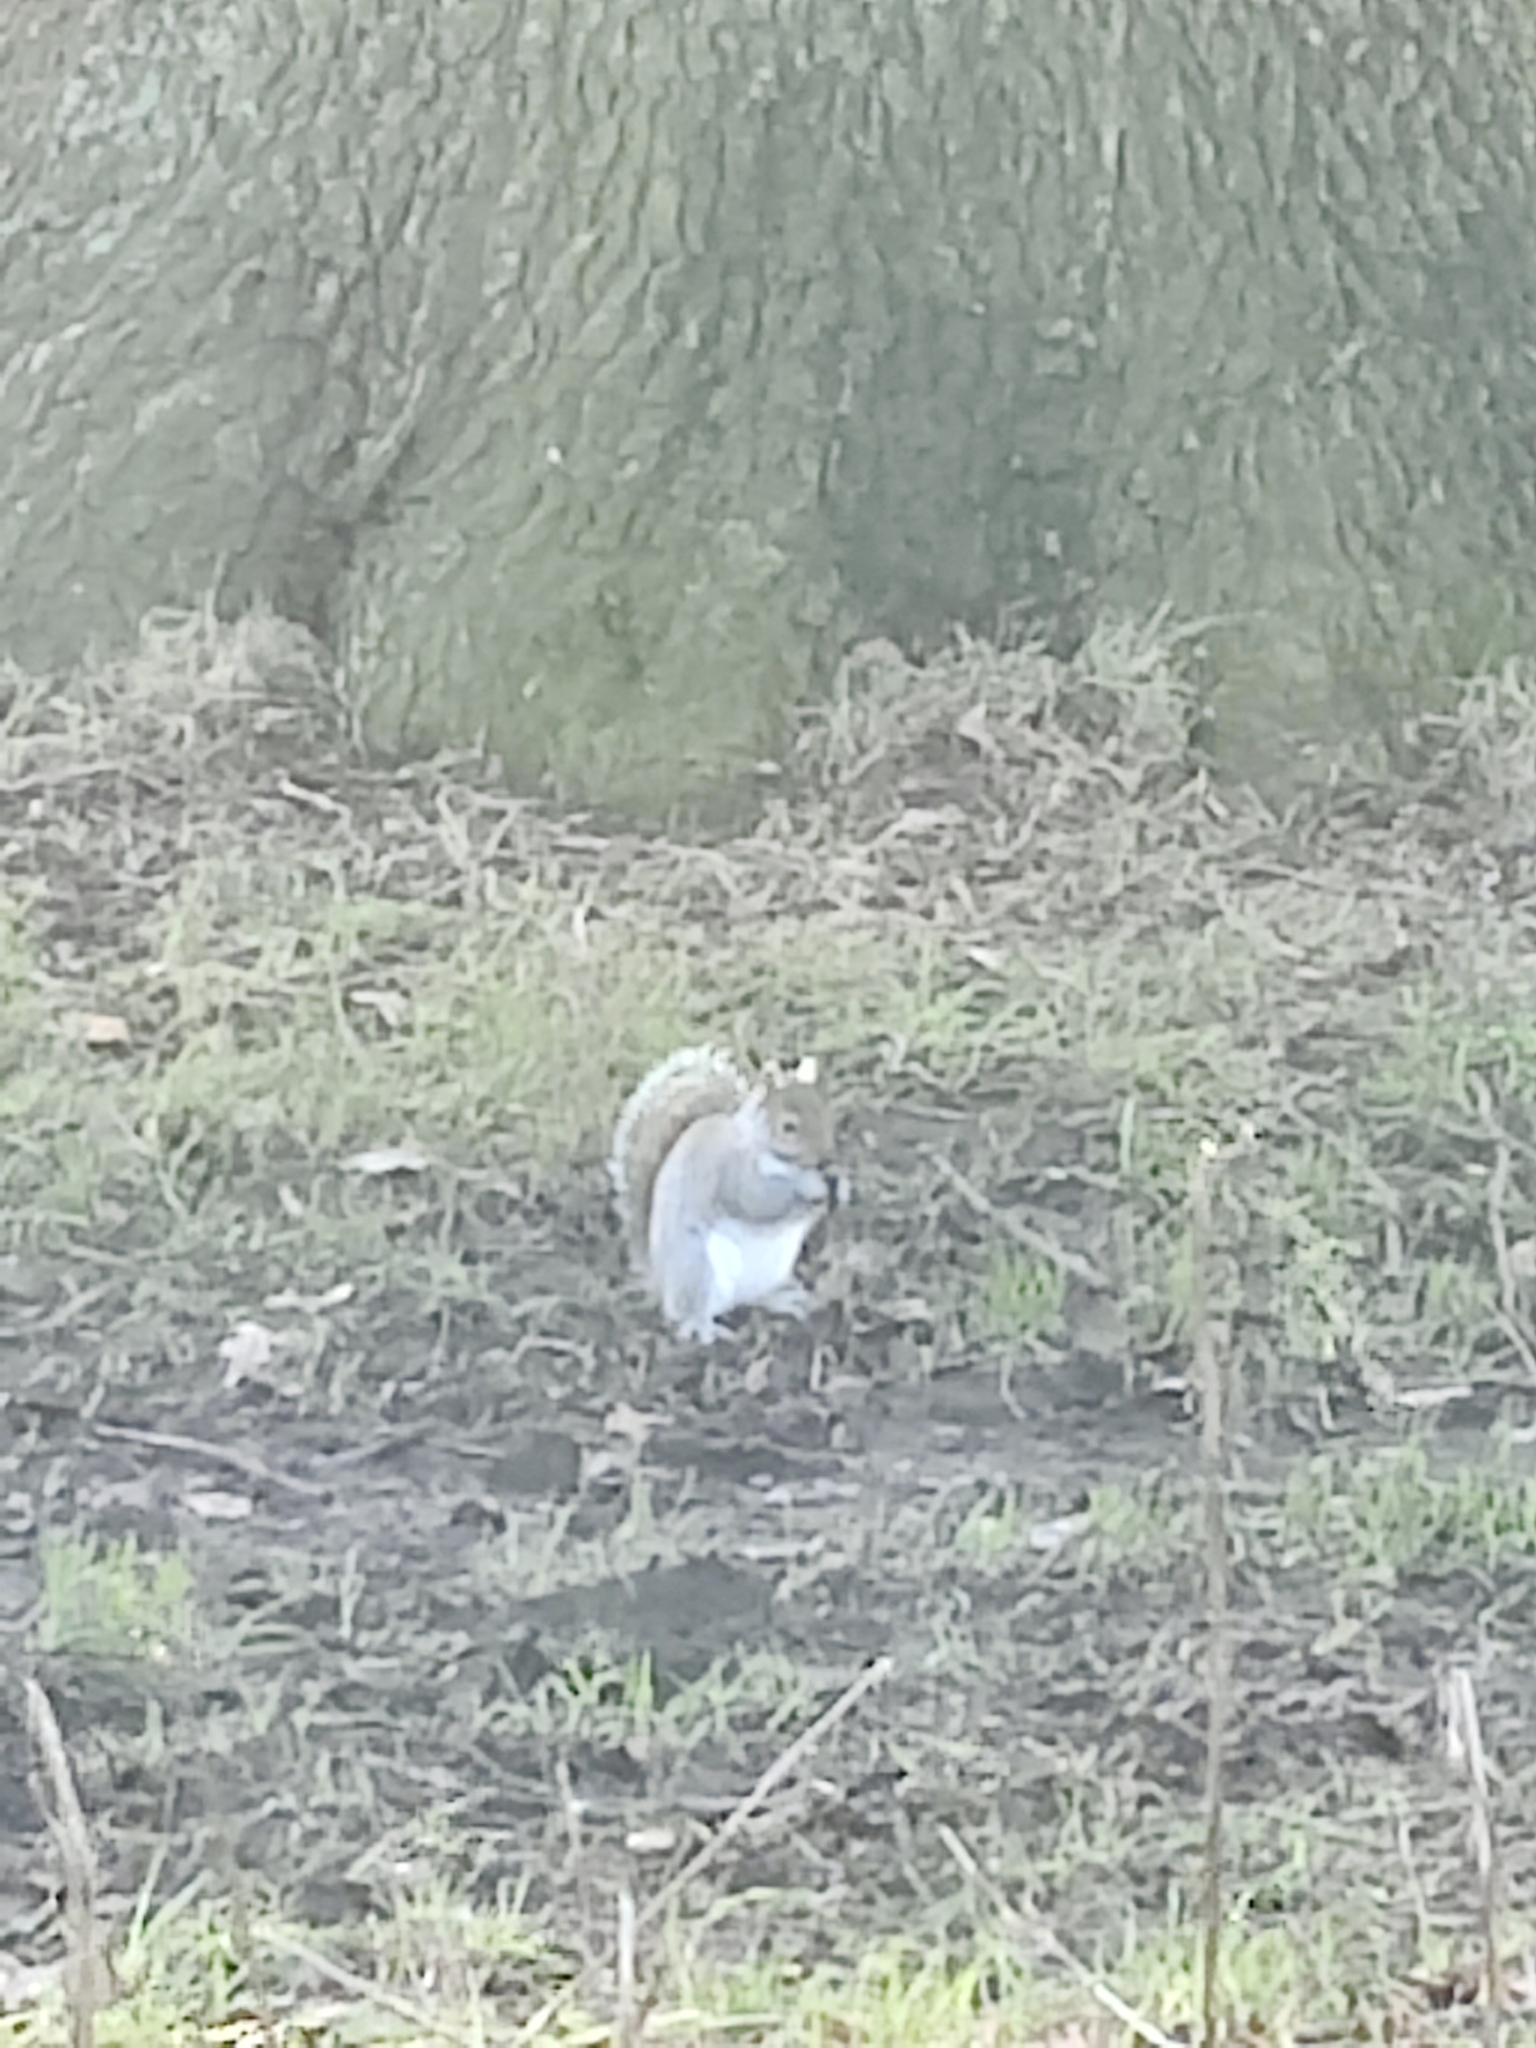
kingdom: Animalia
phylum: Chordata
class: Mammalia
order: Rodentia
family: Sciuridae
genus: Sciurus
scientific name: Sciurus carolinensis
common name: Eastern gray squirrel
